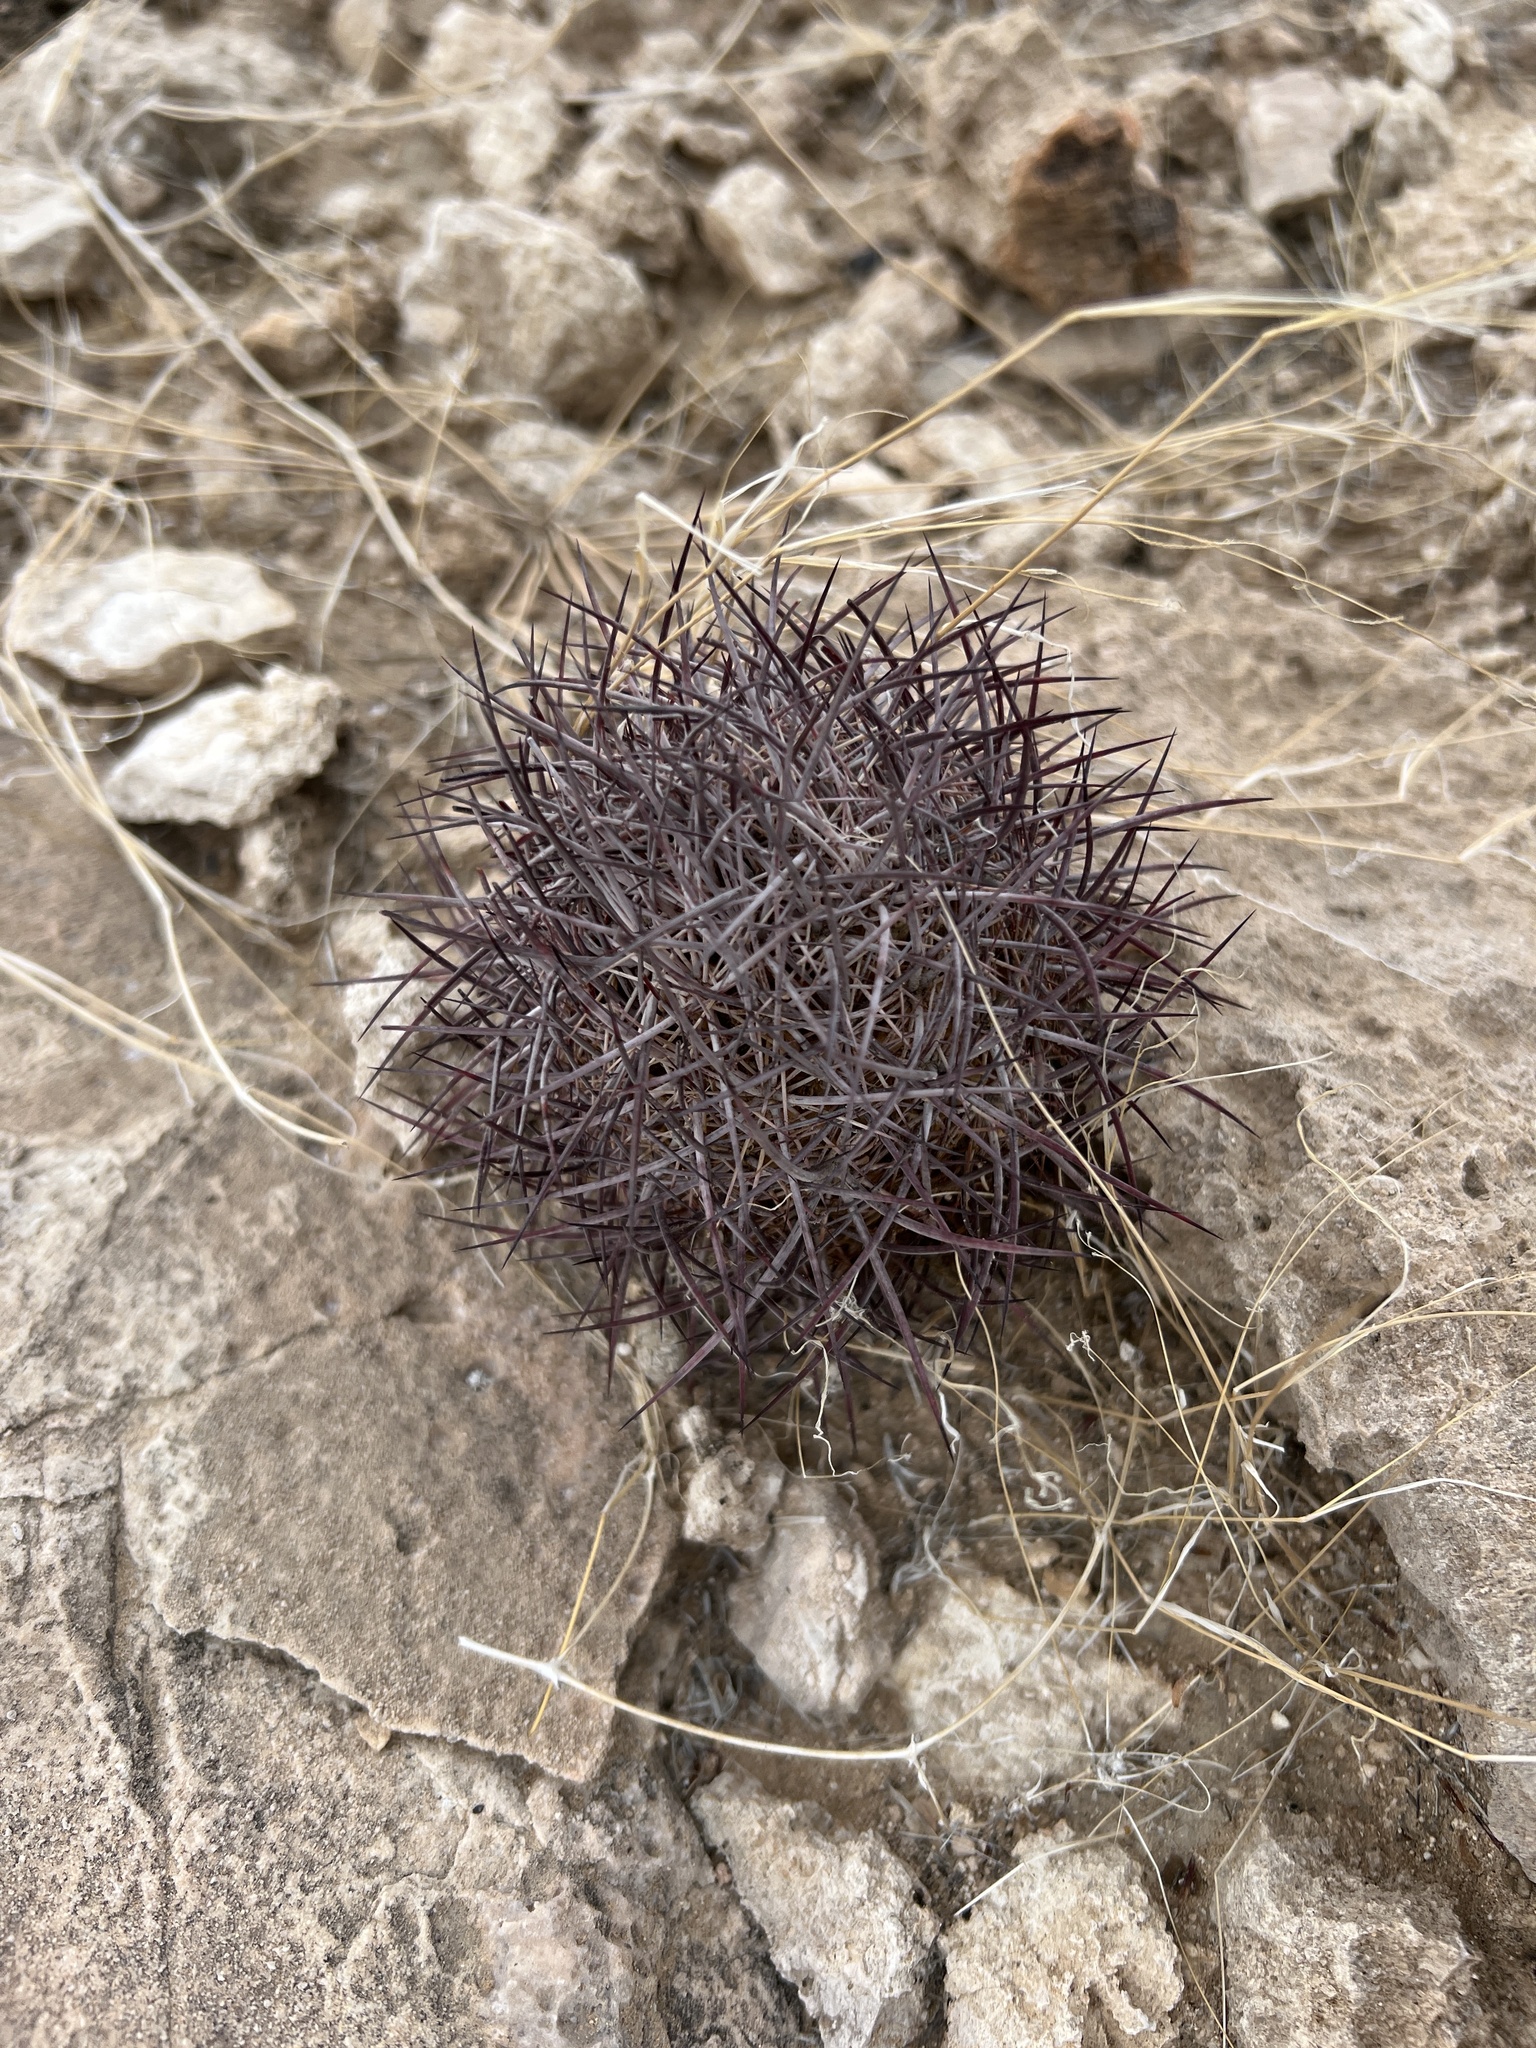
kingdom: Plantae
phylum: Tracheophyta
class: Magnoliopsida
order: Caryophyllales
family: Cactaceae
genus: Sclerocactus
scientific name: Sclerocactus johnsonii
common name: Eight-spine fishhook cactus
